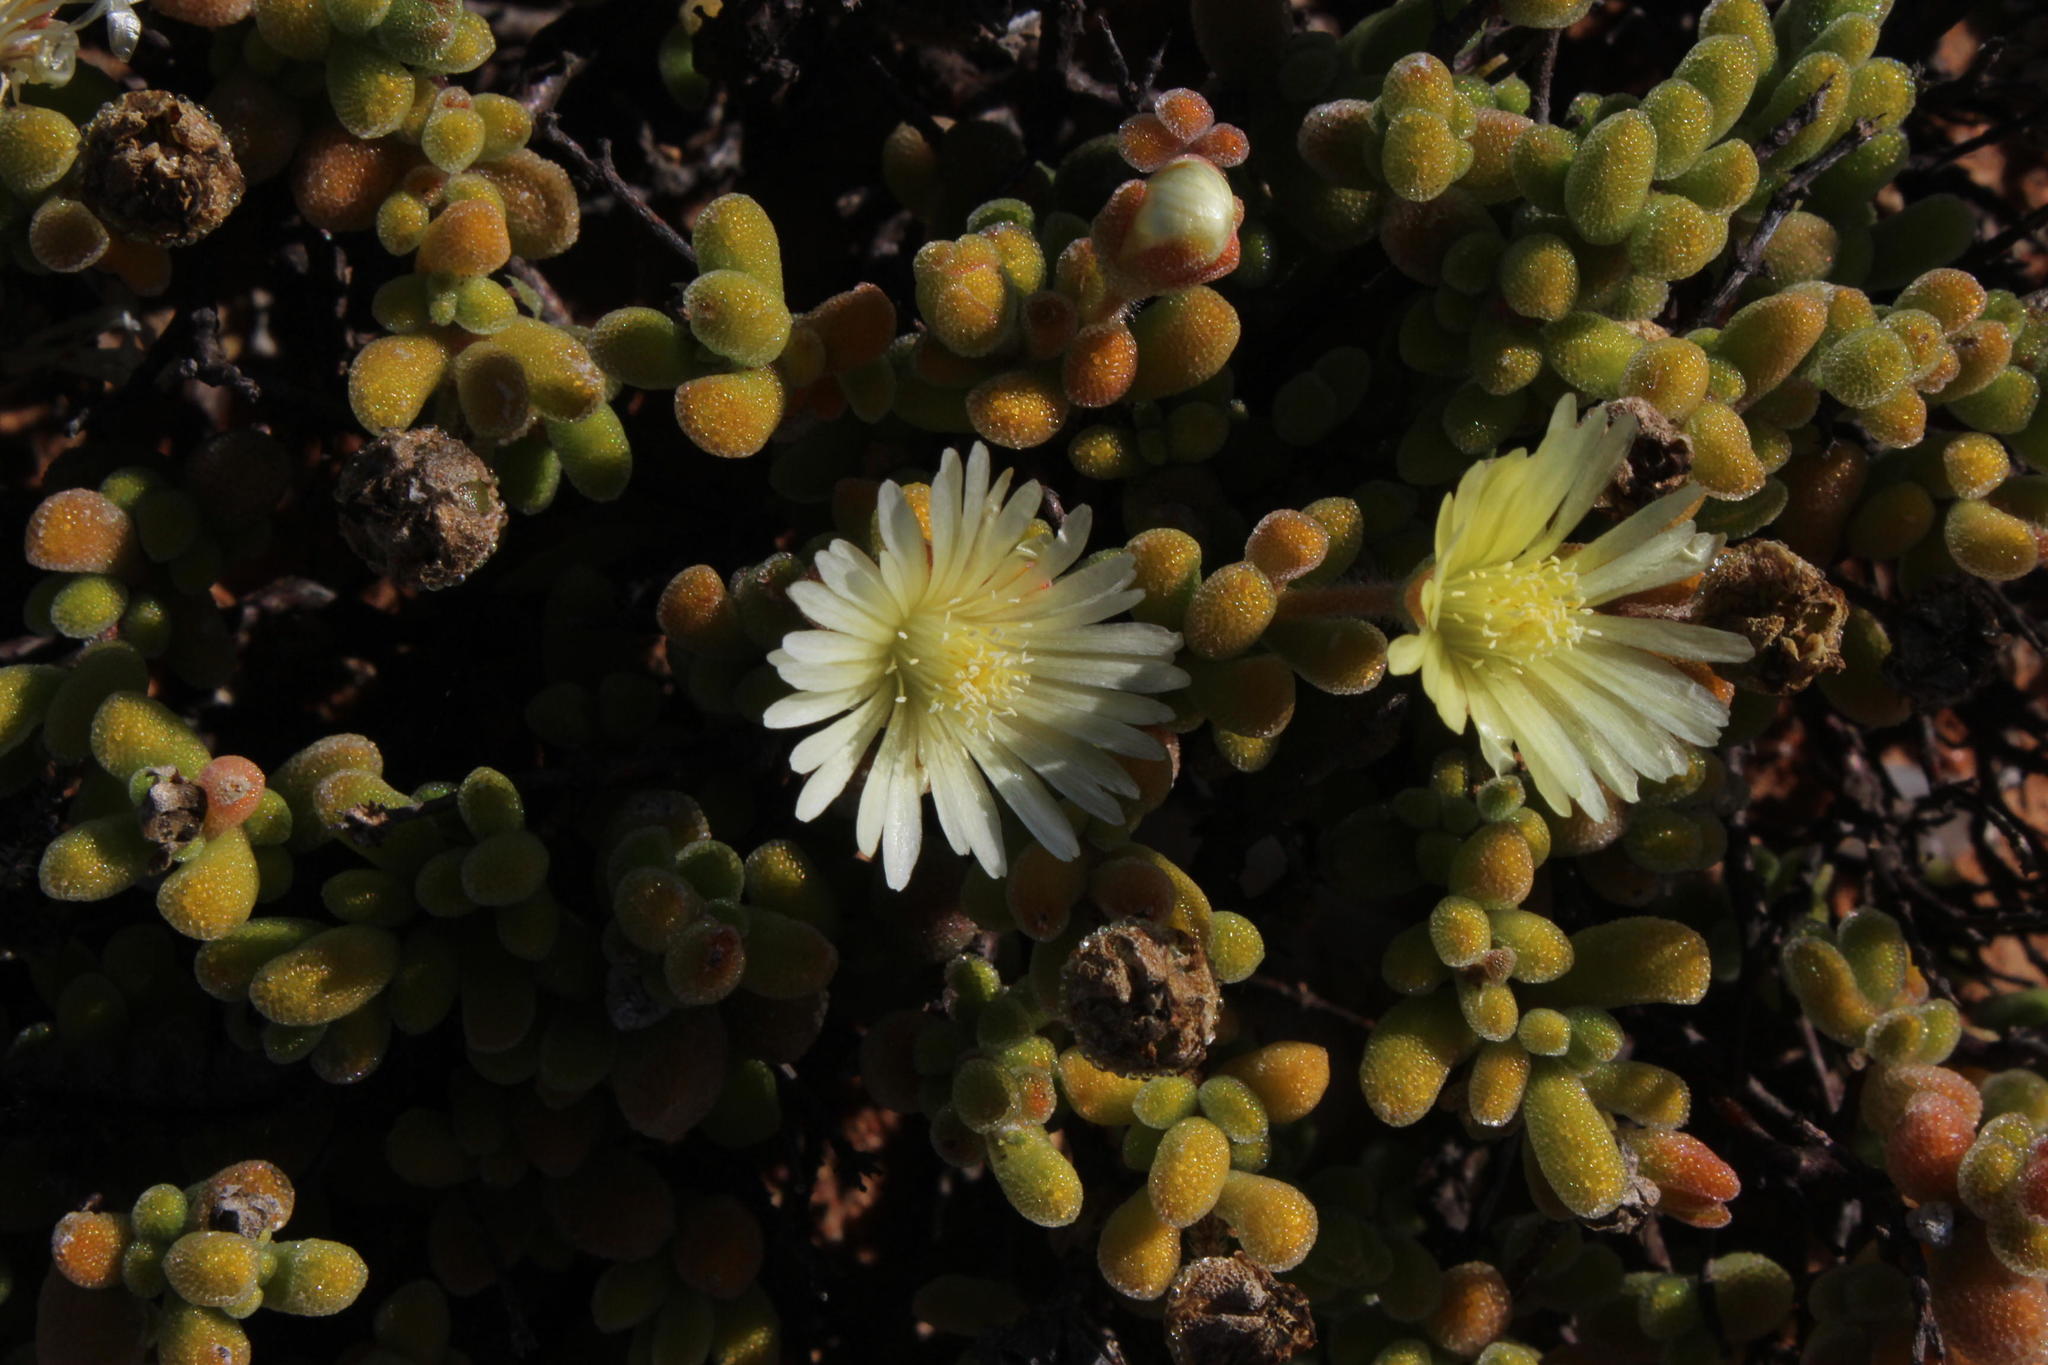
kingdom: Plantae
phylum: Tracheophyta
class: Magnoliopsida
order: Caryophyllales
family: Aizoaceae
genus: Drosanthemum
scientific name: Drosanthemum schoenlandianum
